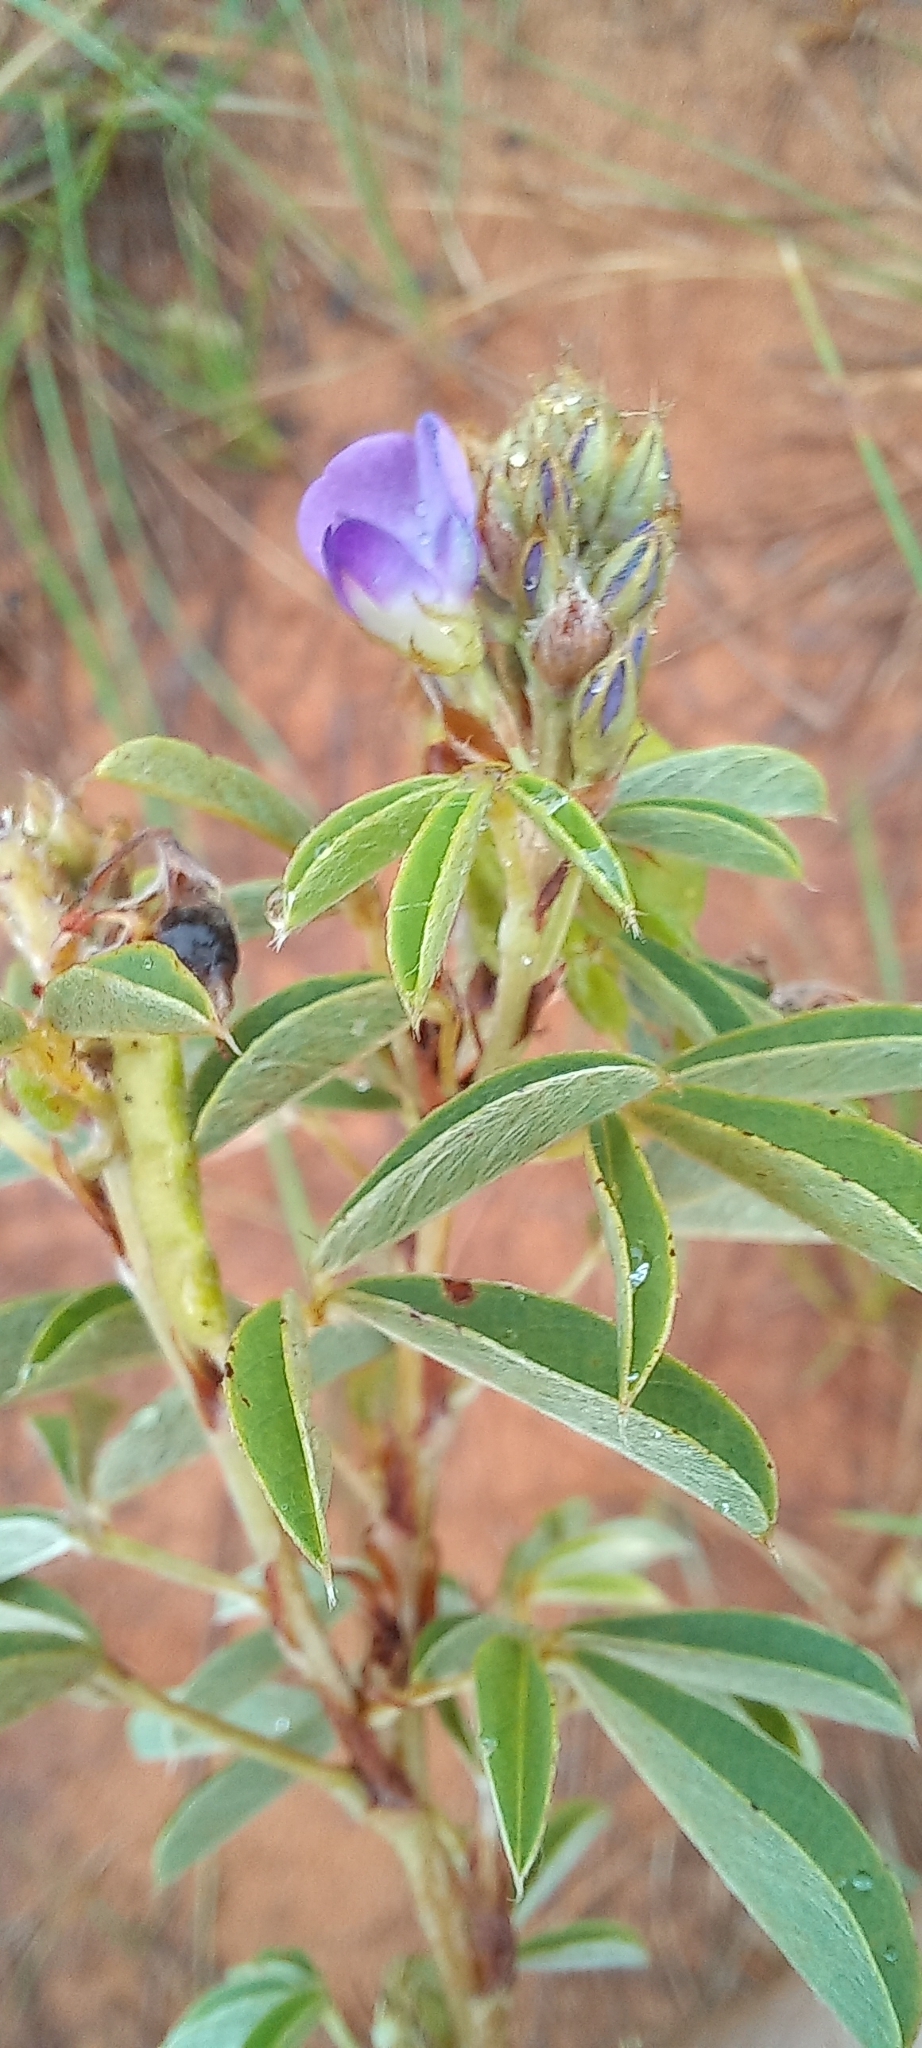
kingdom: Plantae
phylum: Tracheophyta
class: Magnoliopsida
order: Fabales
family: Fabaceae
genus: Grona
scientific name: Grona caffra
